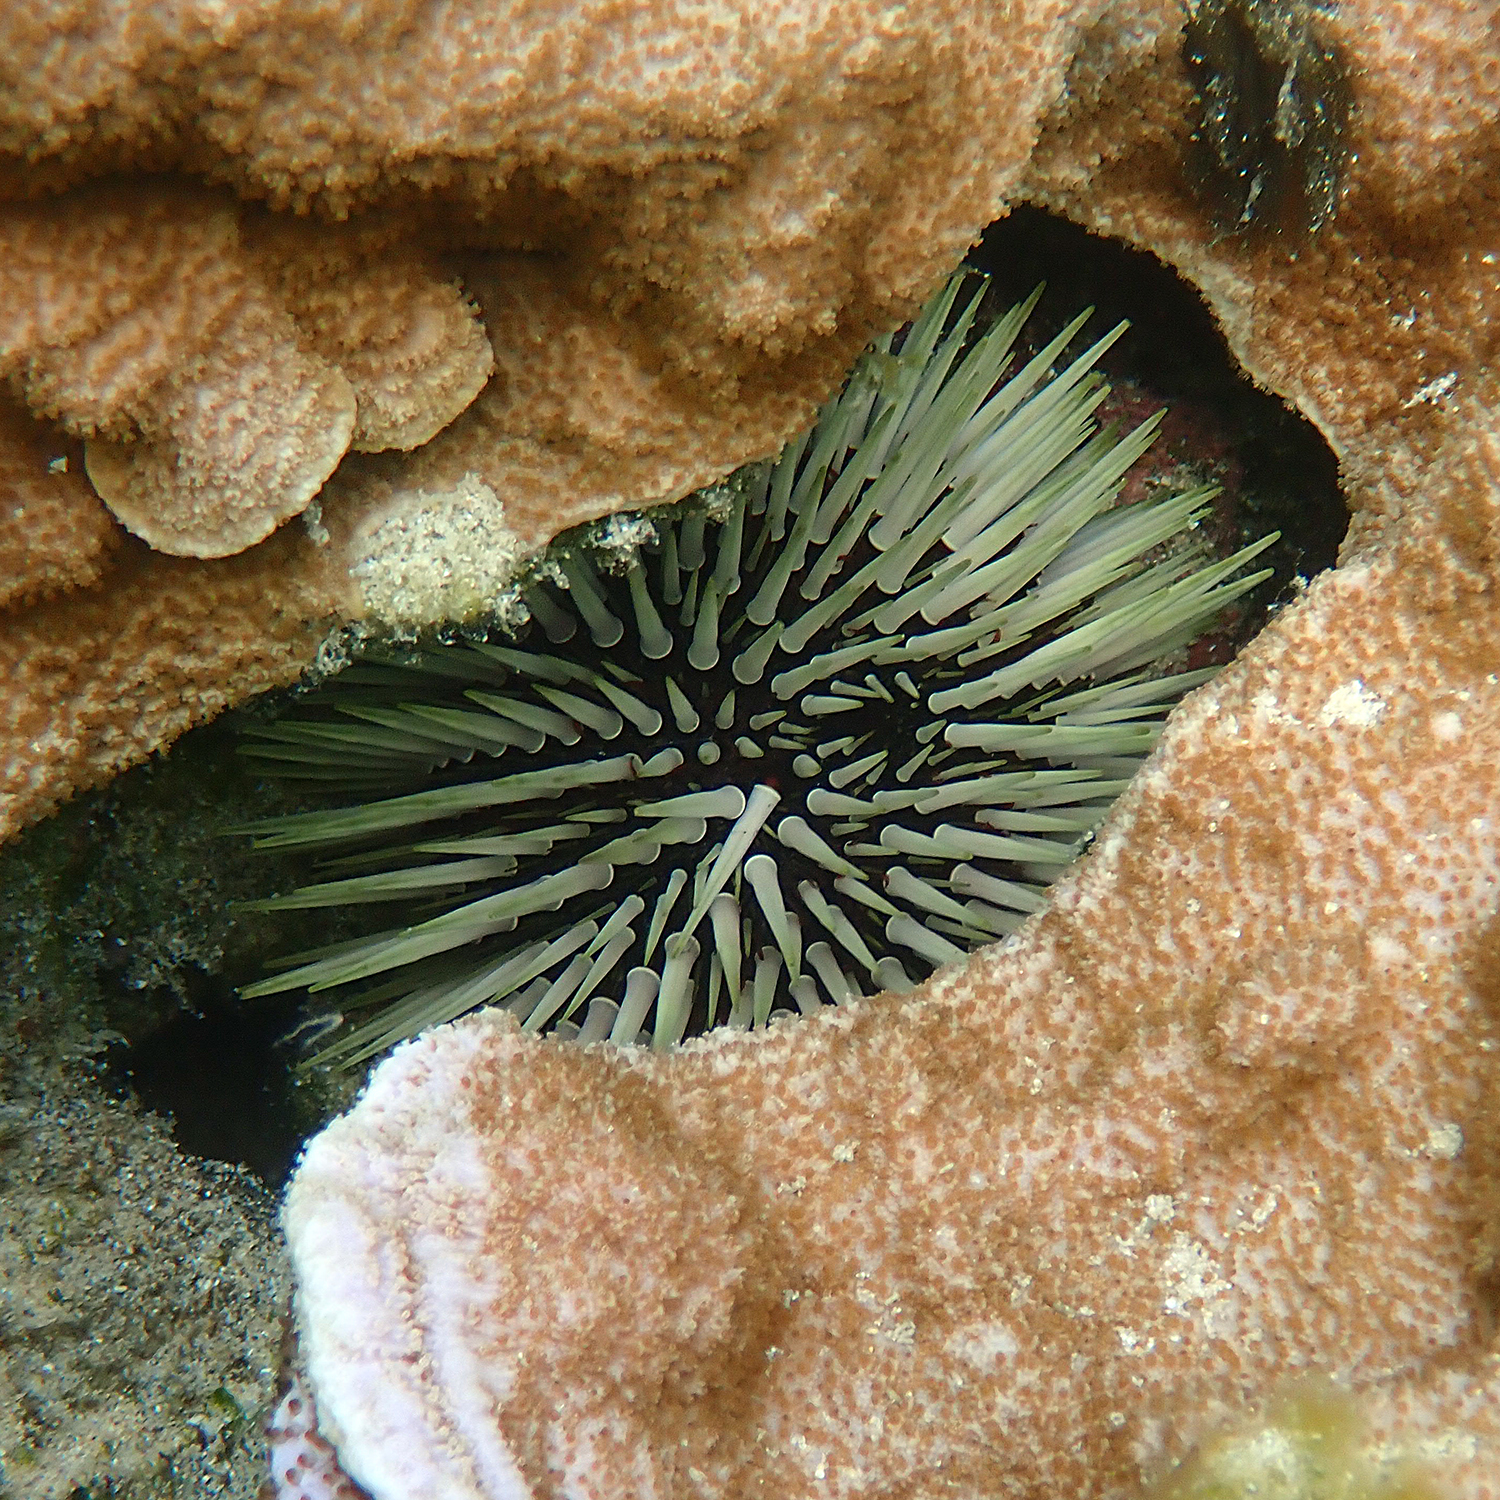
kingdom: Animalia
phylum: Echinodermata
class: Echinoidea
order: Camarodonta
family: Echinometridae
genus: Echinometra
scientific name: Echinometra mathaei
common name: Rock-boring urchin
